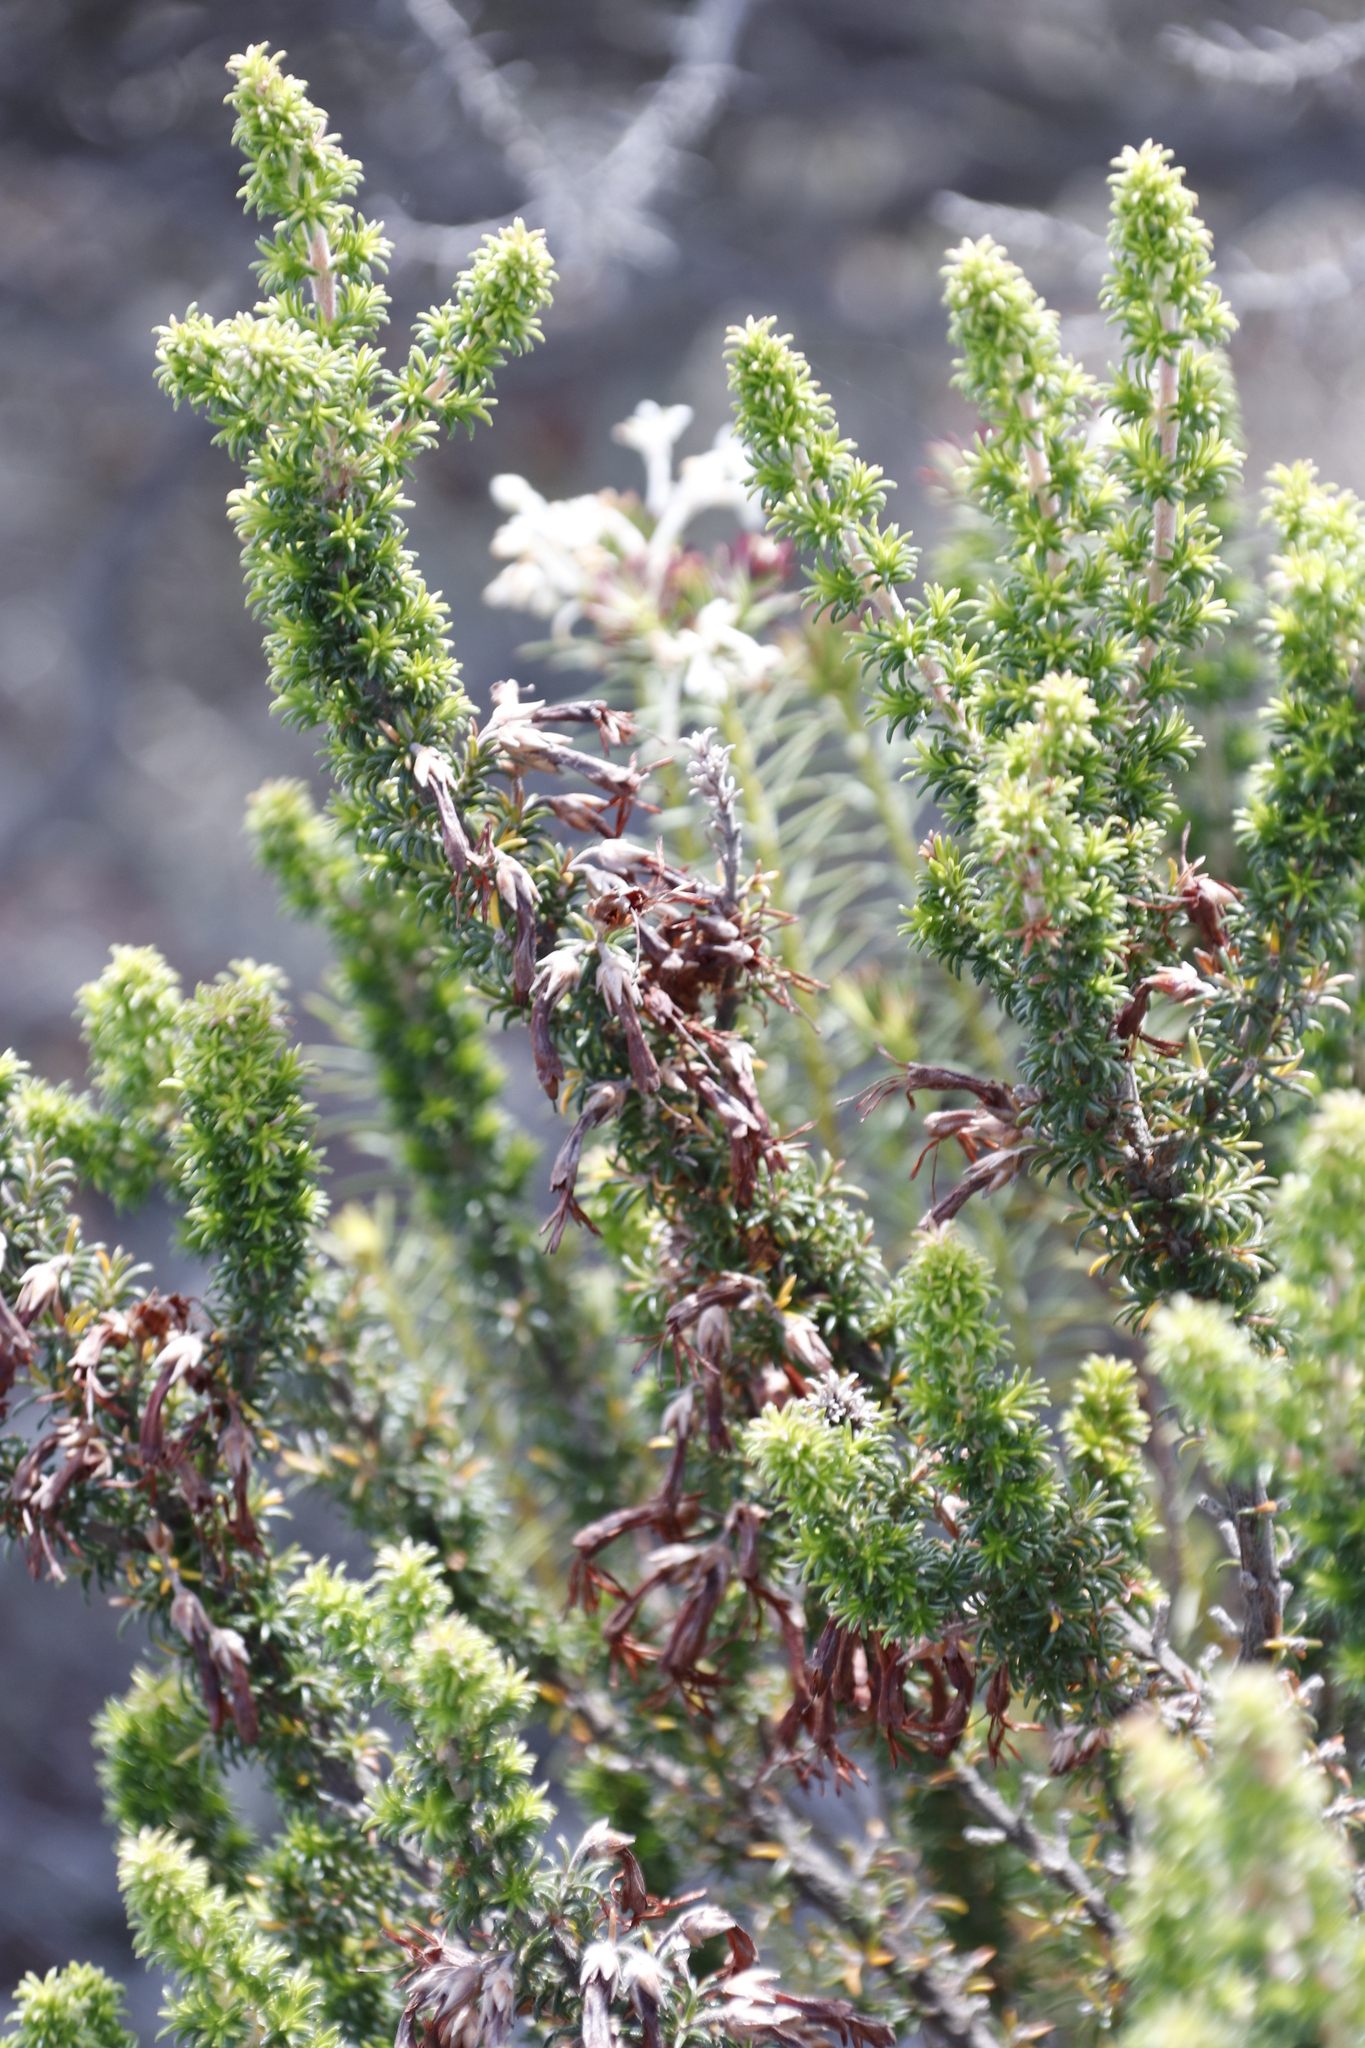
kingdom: Plantae
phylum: Tracheophyta
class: Magnoliopsida
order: Ericales
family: Ericaceae
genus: Erica
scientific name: Erica coccinea
